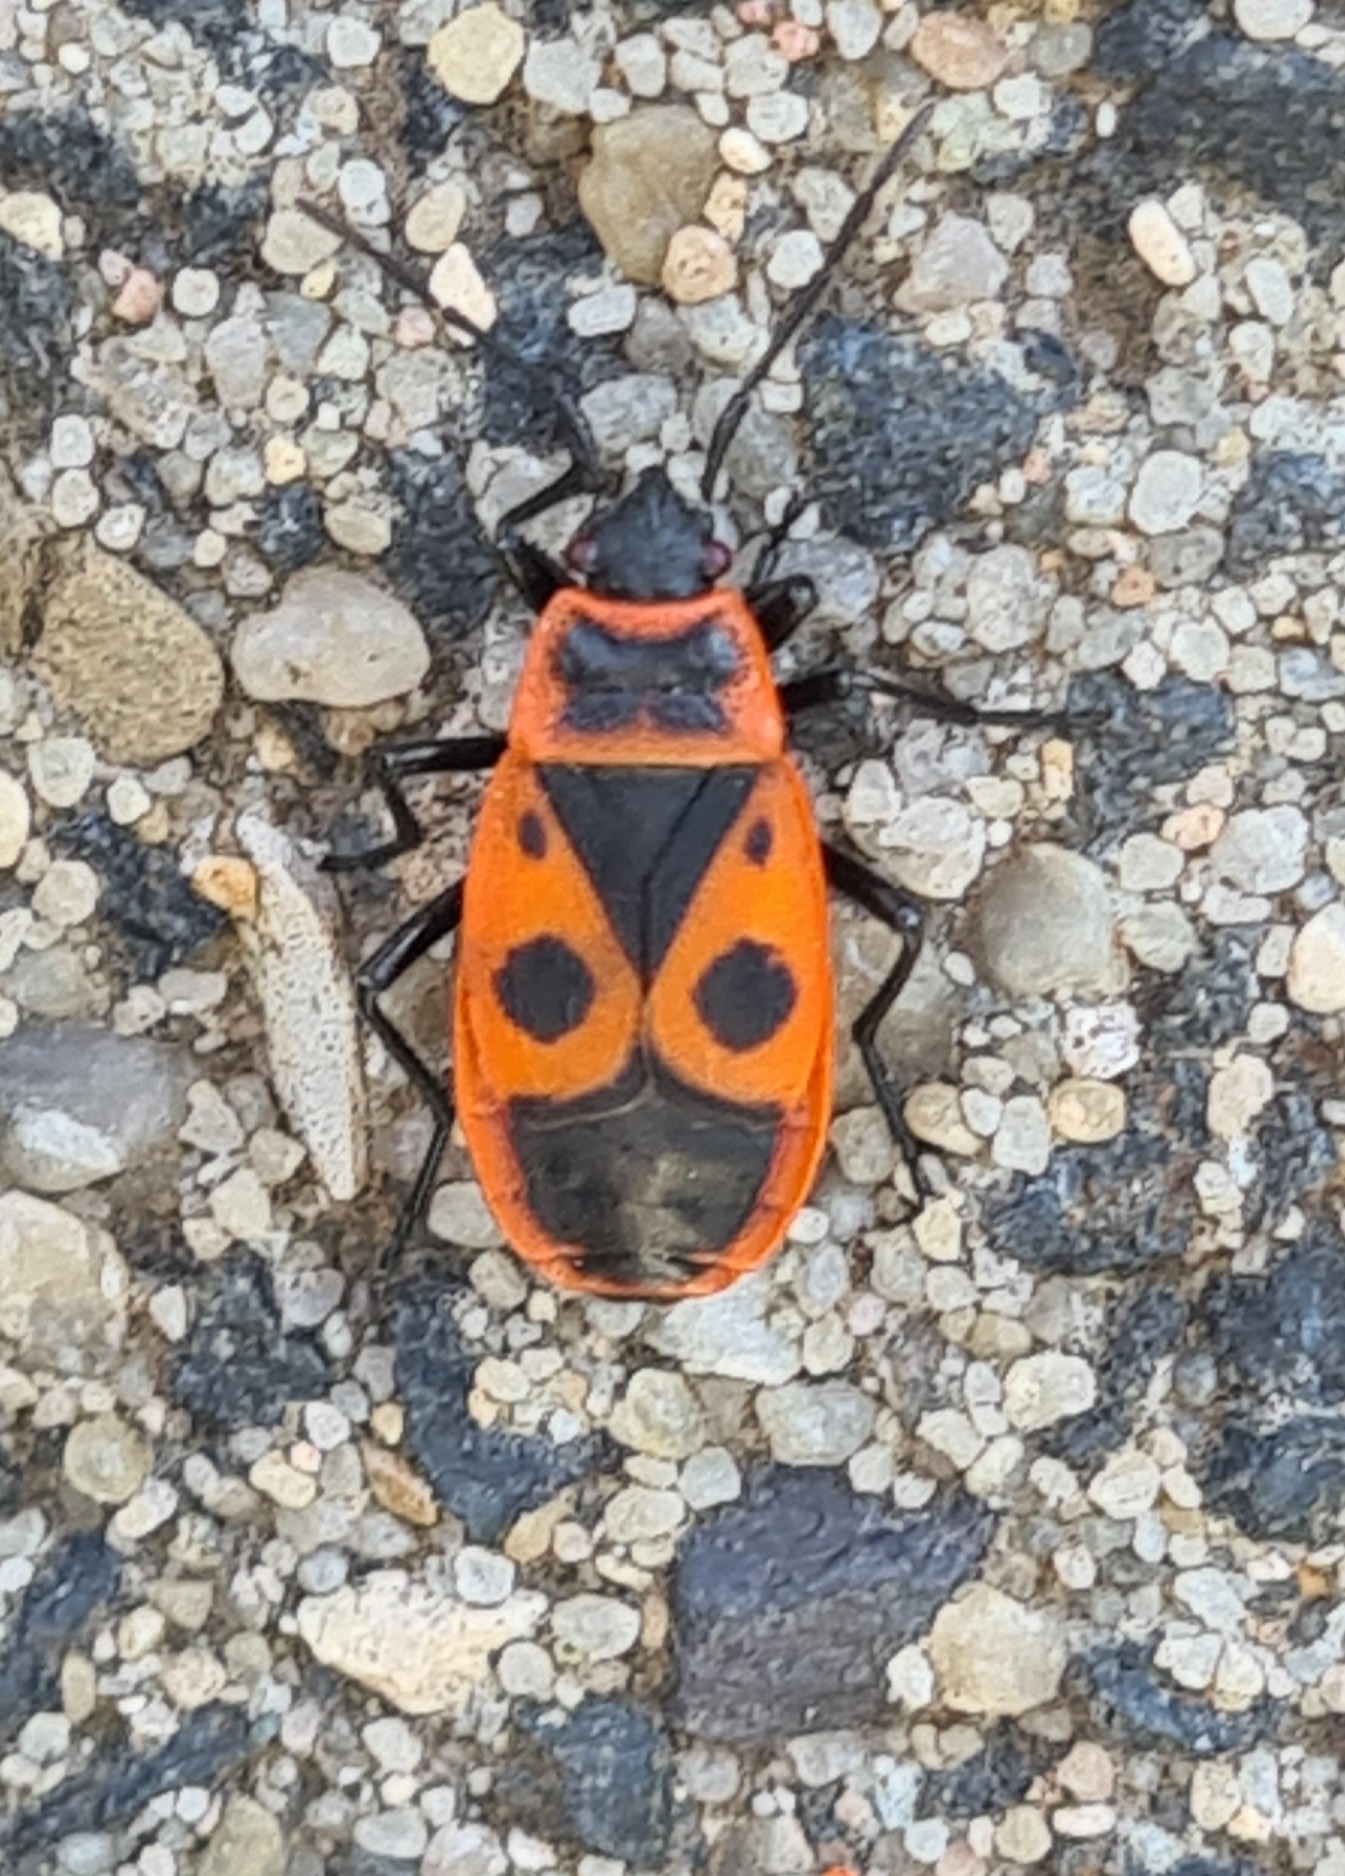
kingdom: Animalia
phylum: Arthropoda
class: Insecta
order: Hemiptera
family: Pyrrhocoridae
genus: Pyrrhocoris
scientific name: Pyrrhocoris apterus
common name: Firebug
